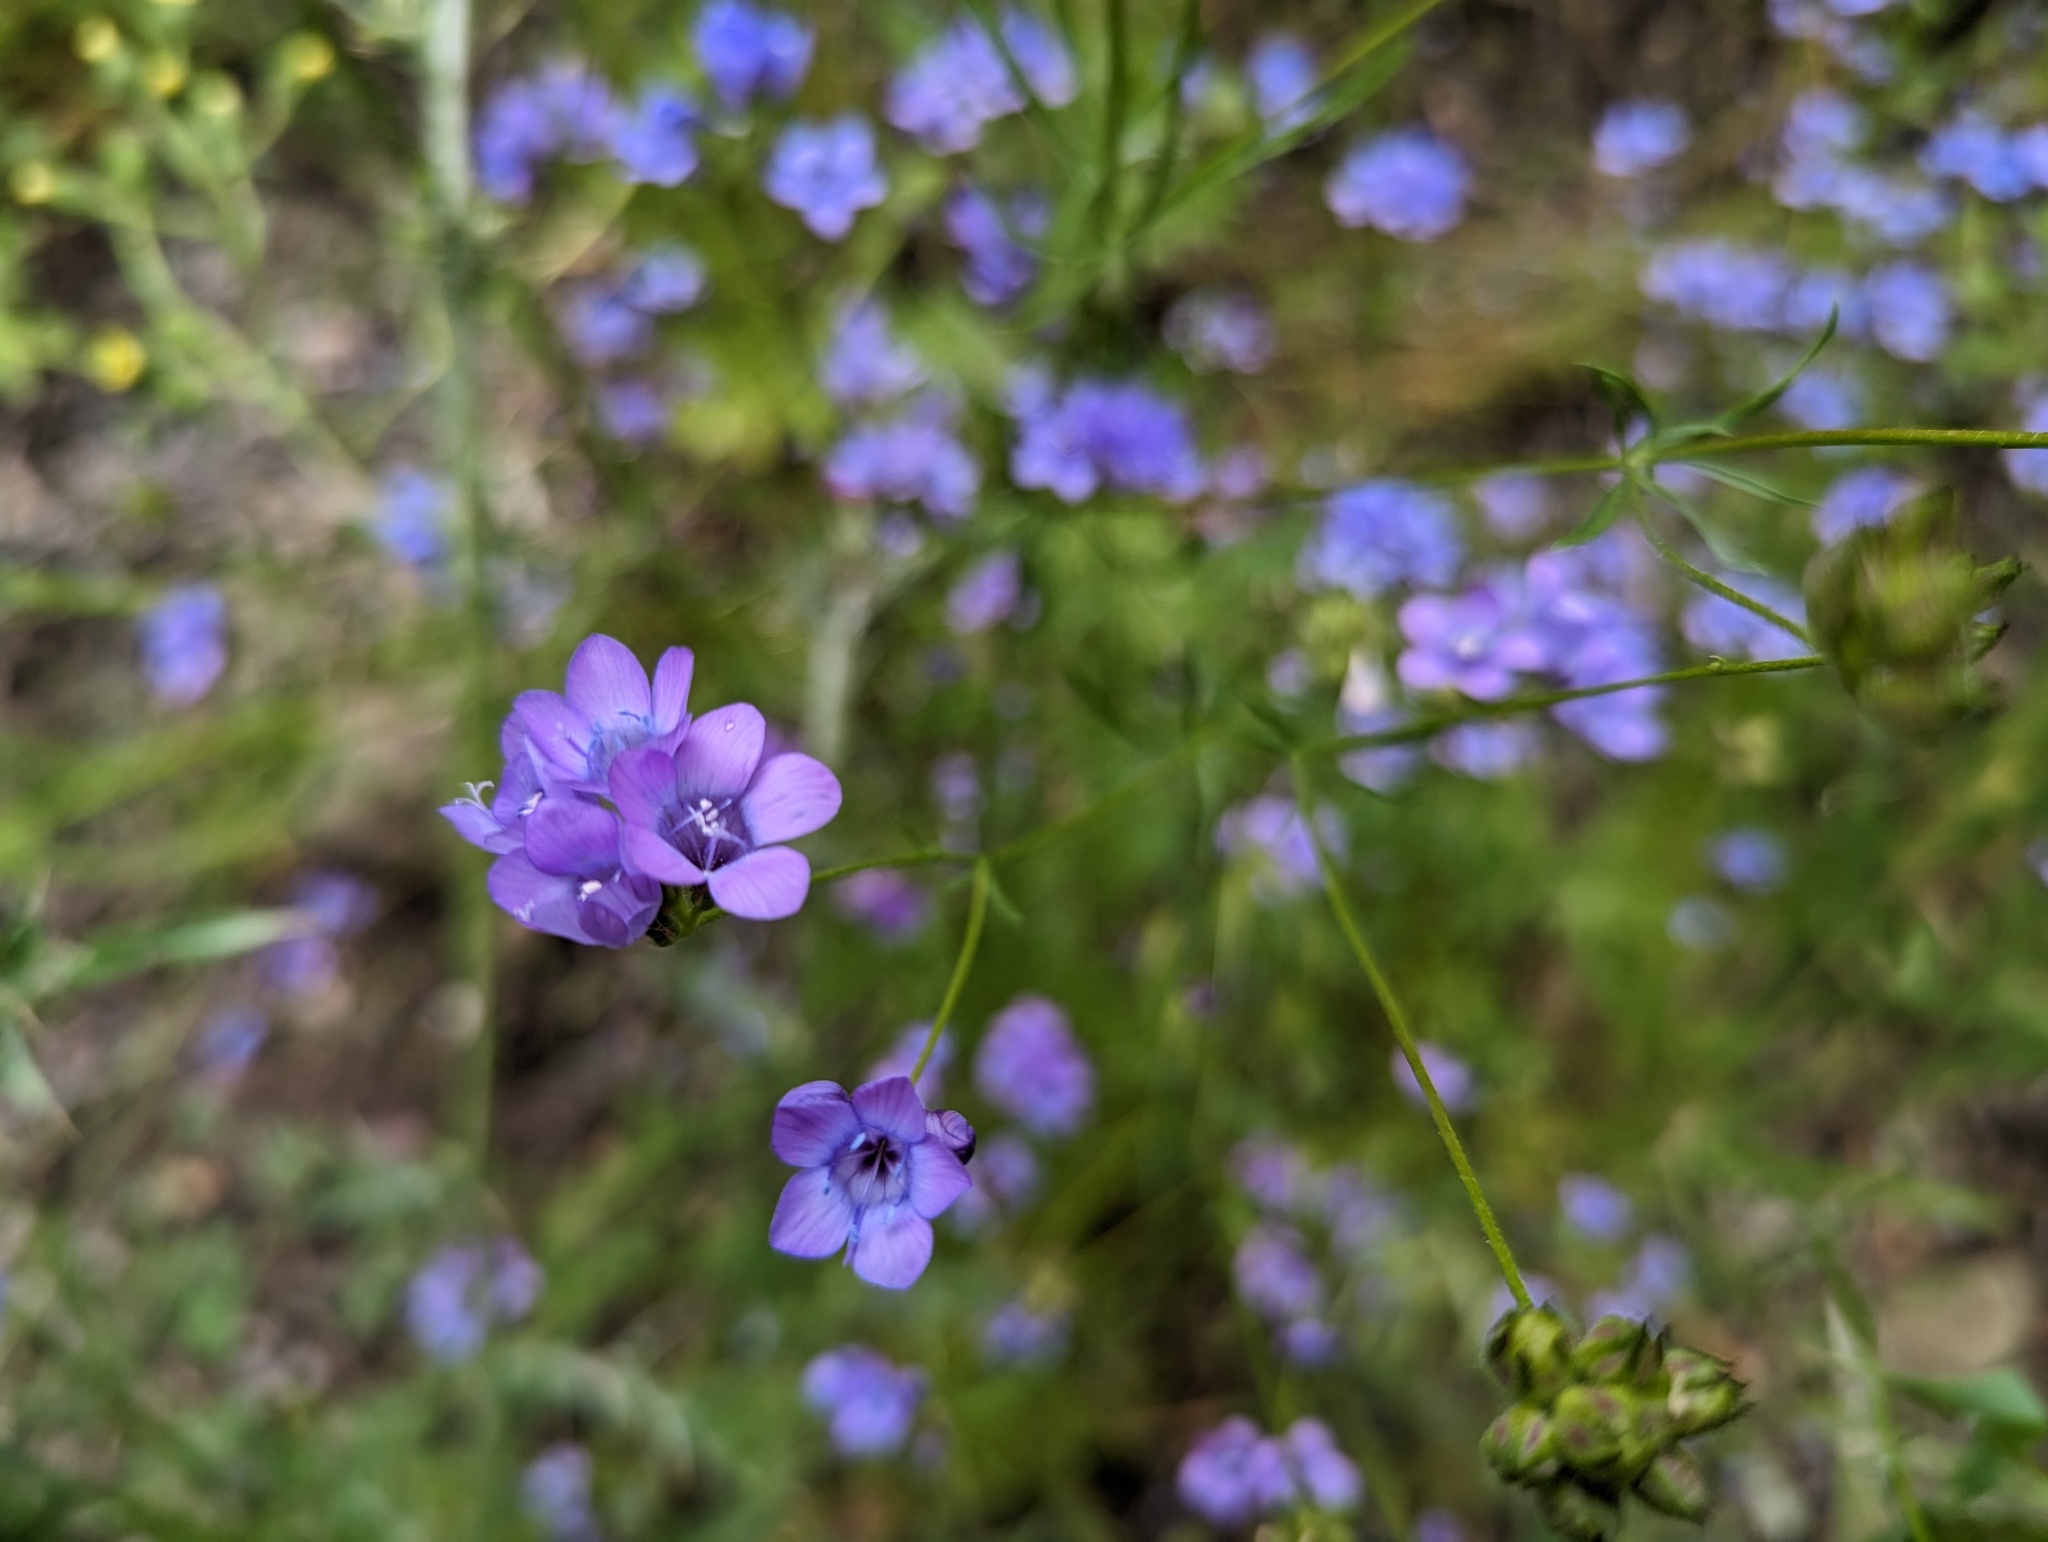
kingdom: Plantae
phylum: Tracheophyta
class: Magnoliopsida
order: Ericales
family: Polemoniaceae
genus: Gilia
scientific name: Gilia achilleifolia
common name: California gily-flower
